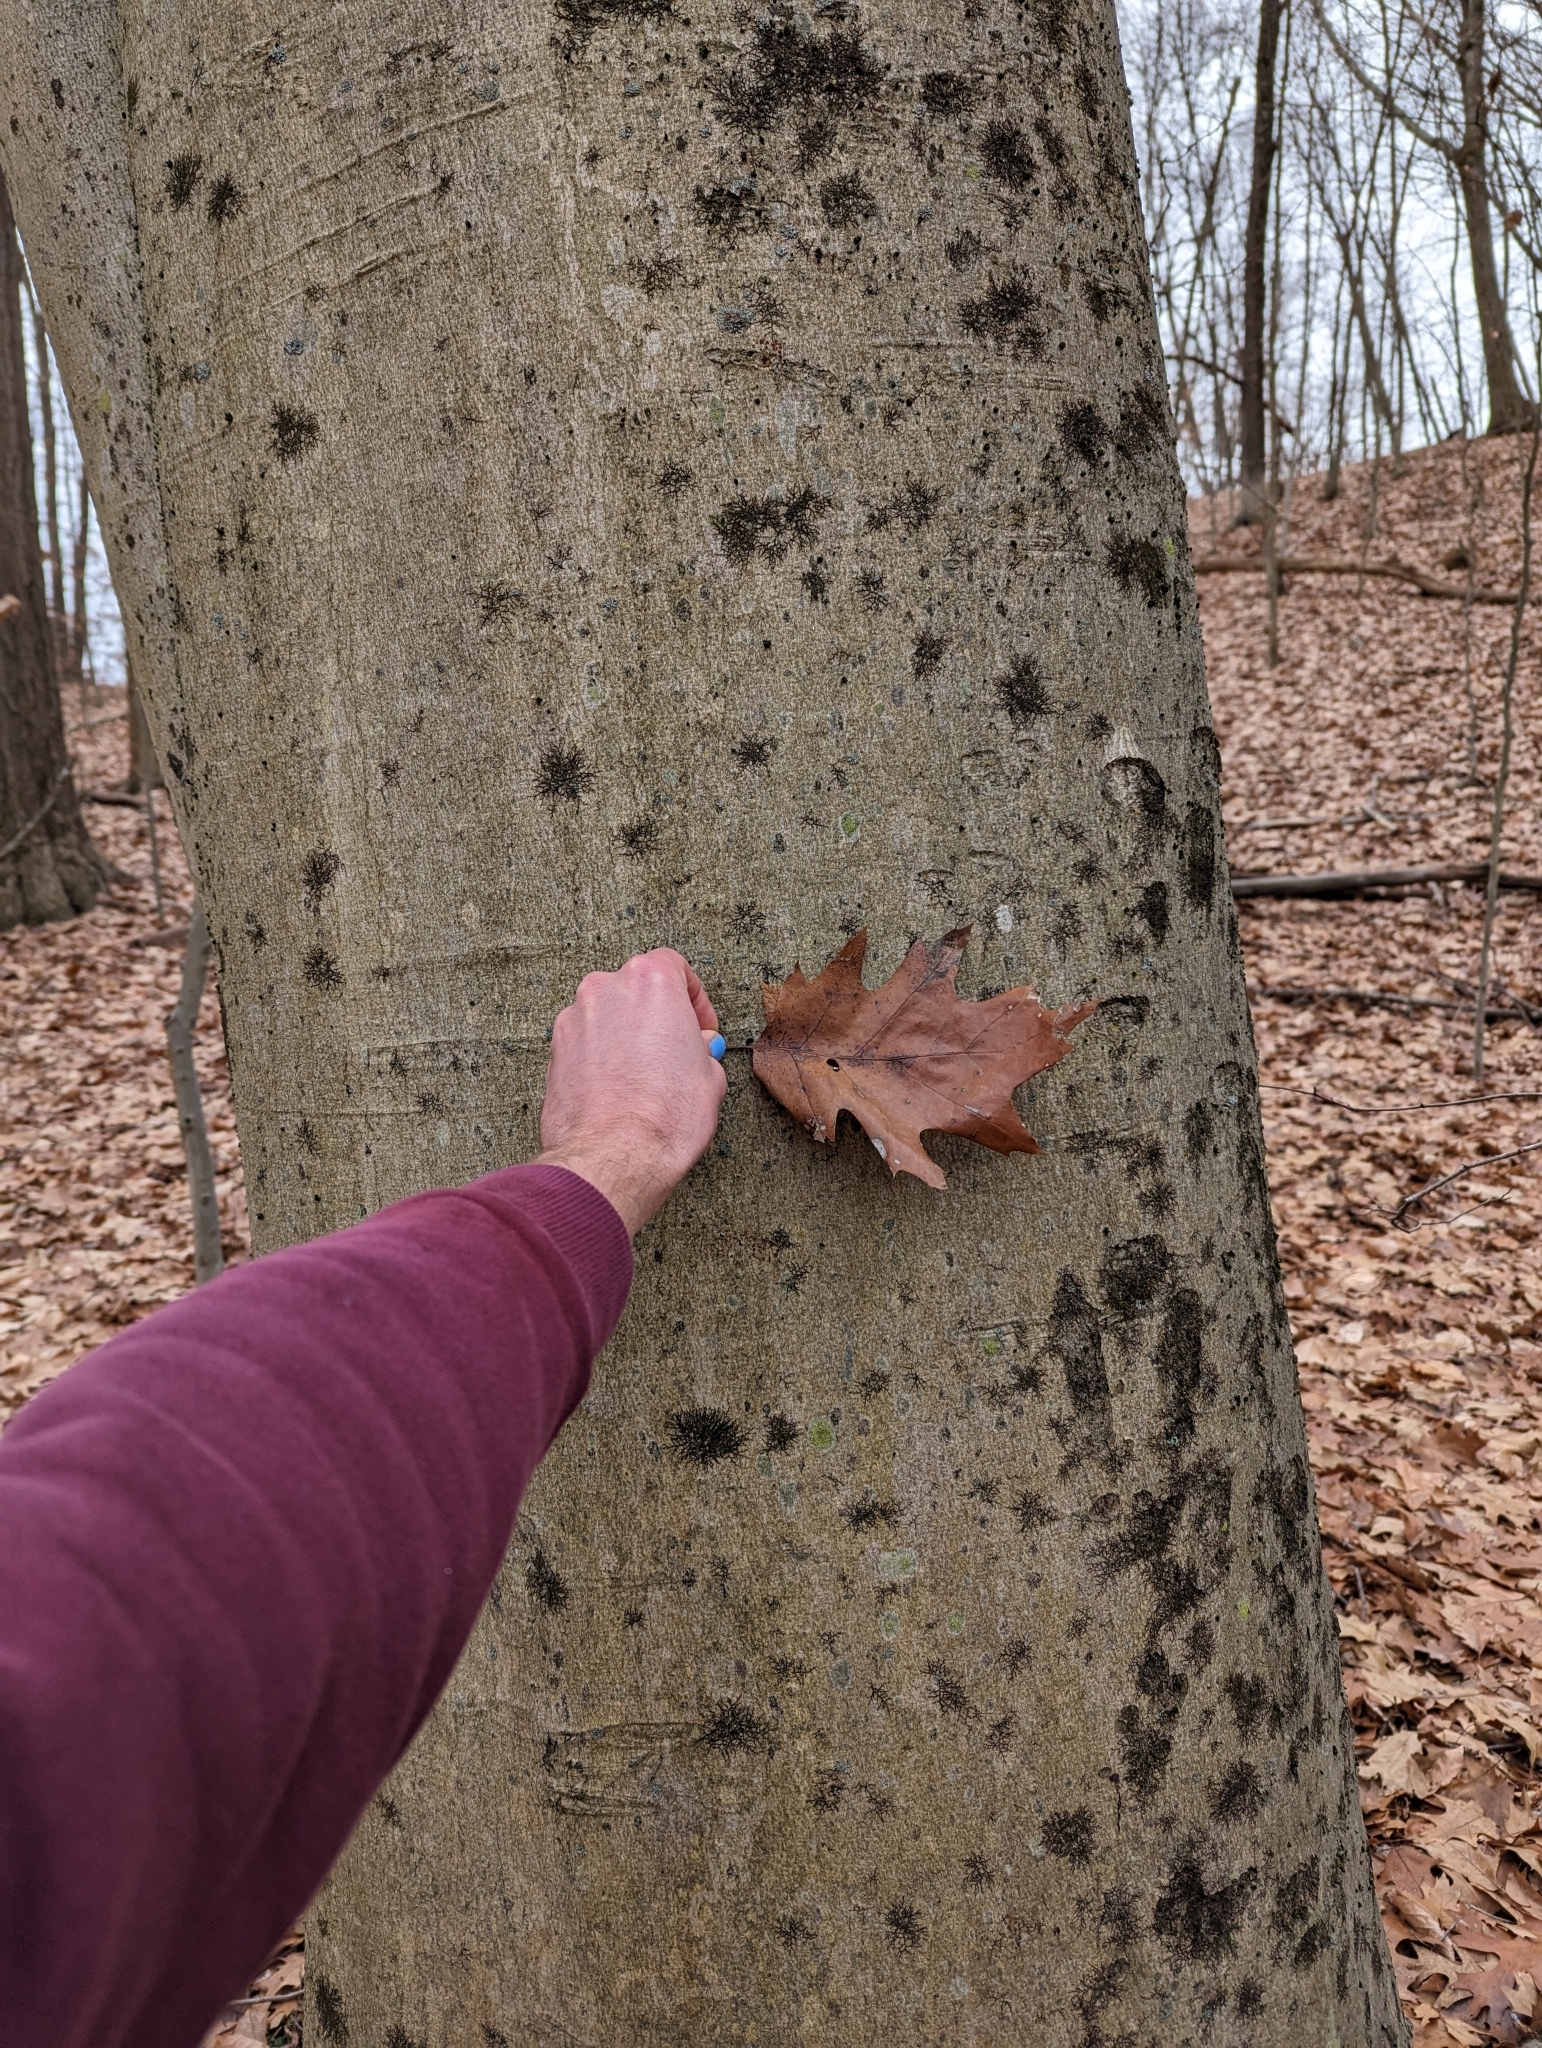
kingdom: Plantae
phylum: Tracheophyta
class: Magnoliopsida
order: Fagales
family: Fagaceae
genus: Fagus
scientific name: Fagus grandifolia
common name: American beech
